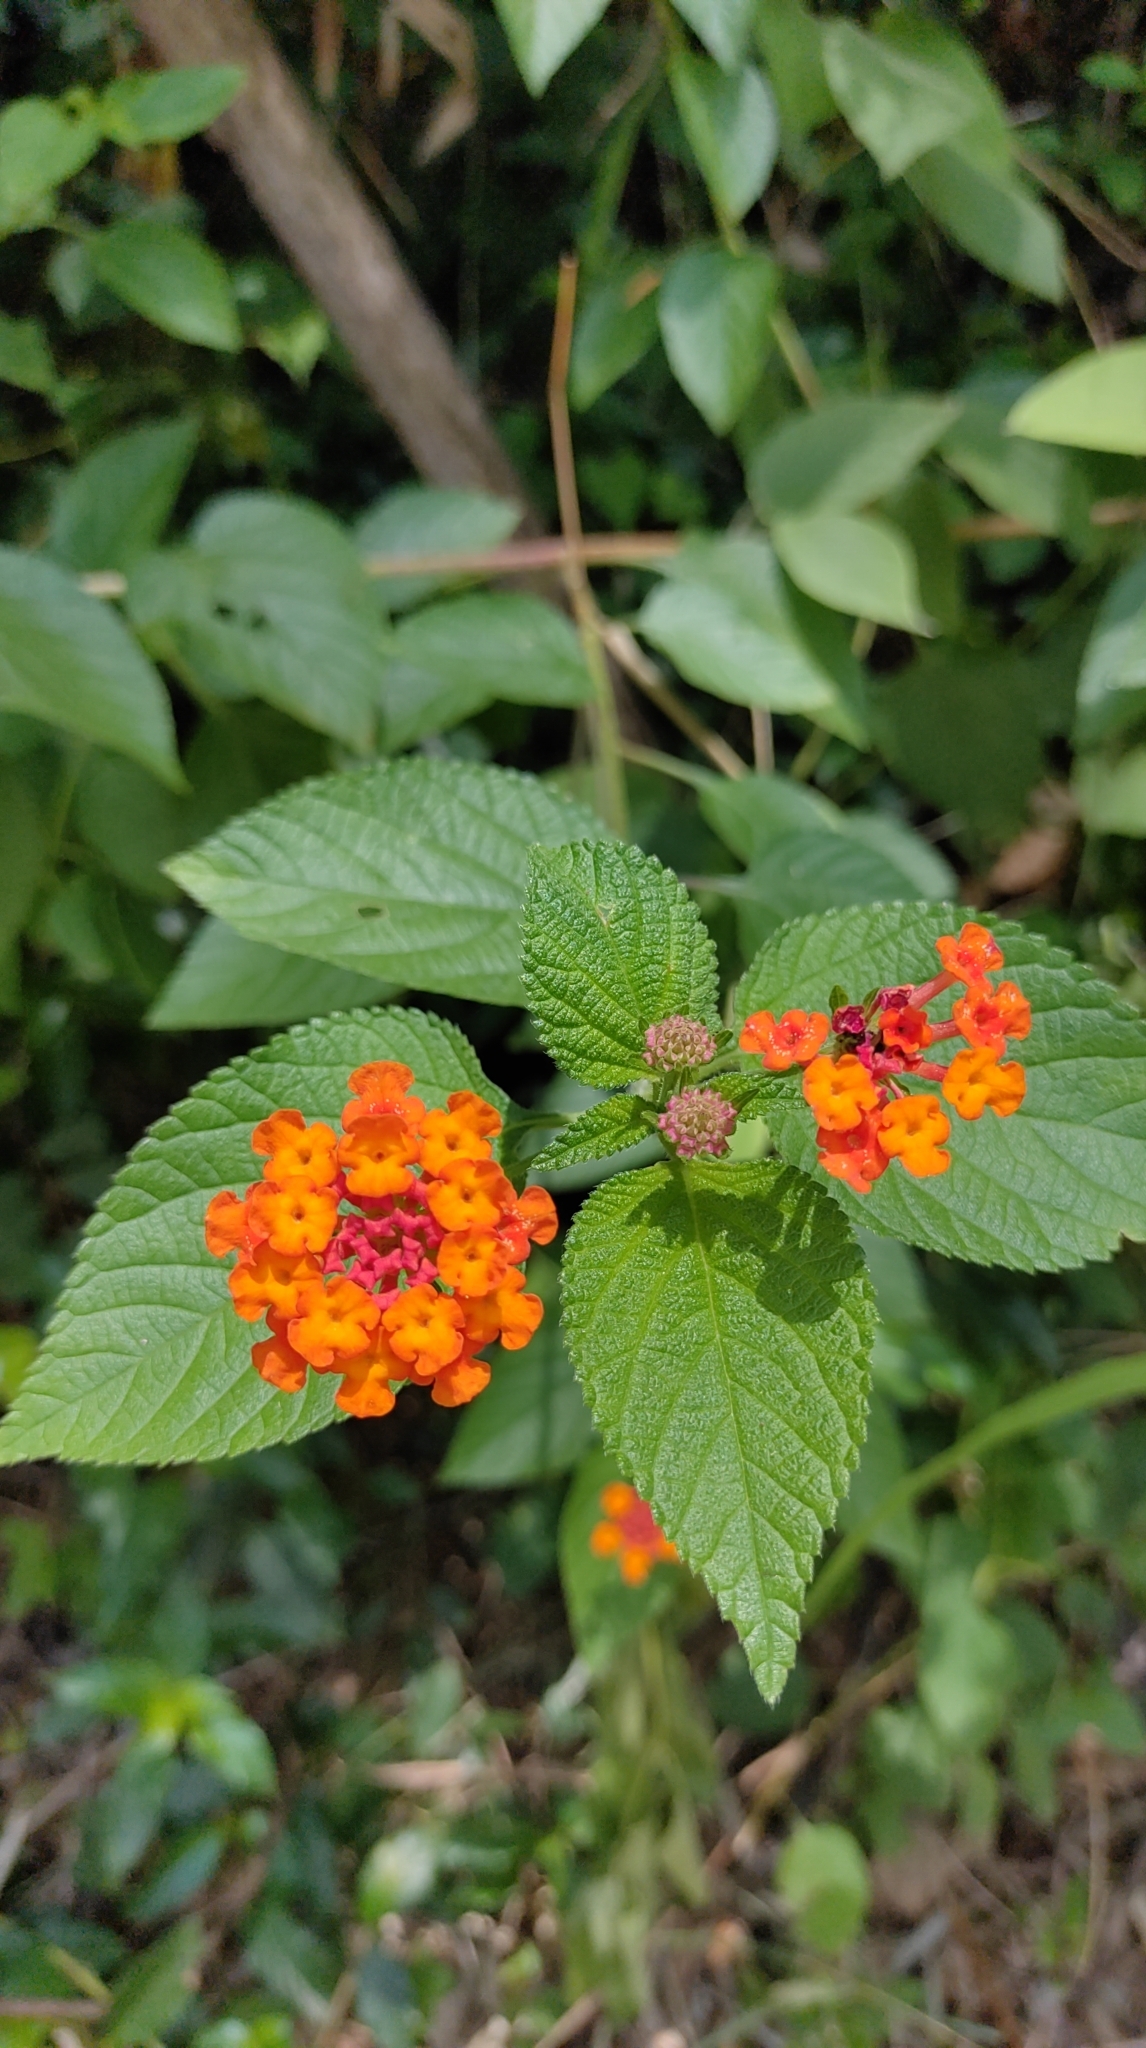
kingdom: Plantae
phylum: Tracheophyta
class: Magnoliopsida
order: Lamiales
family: Verbenaceae
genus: Lantana
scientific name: Lantana camara
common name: Lantana
